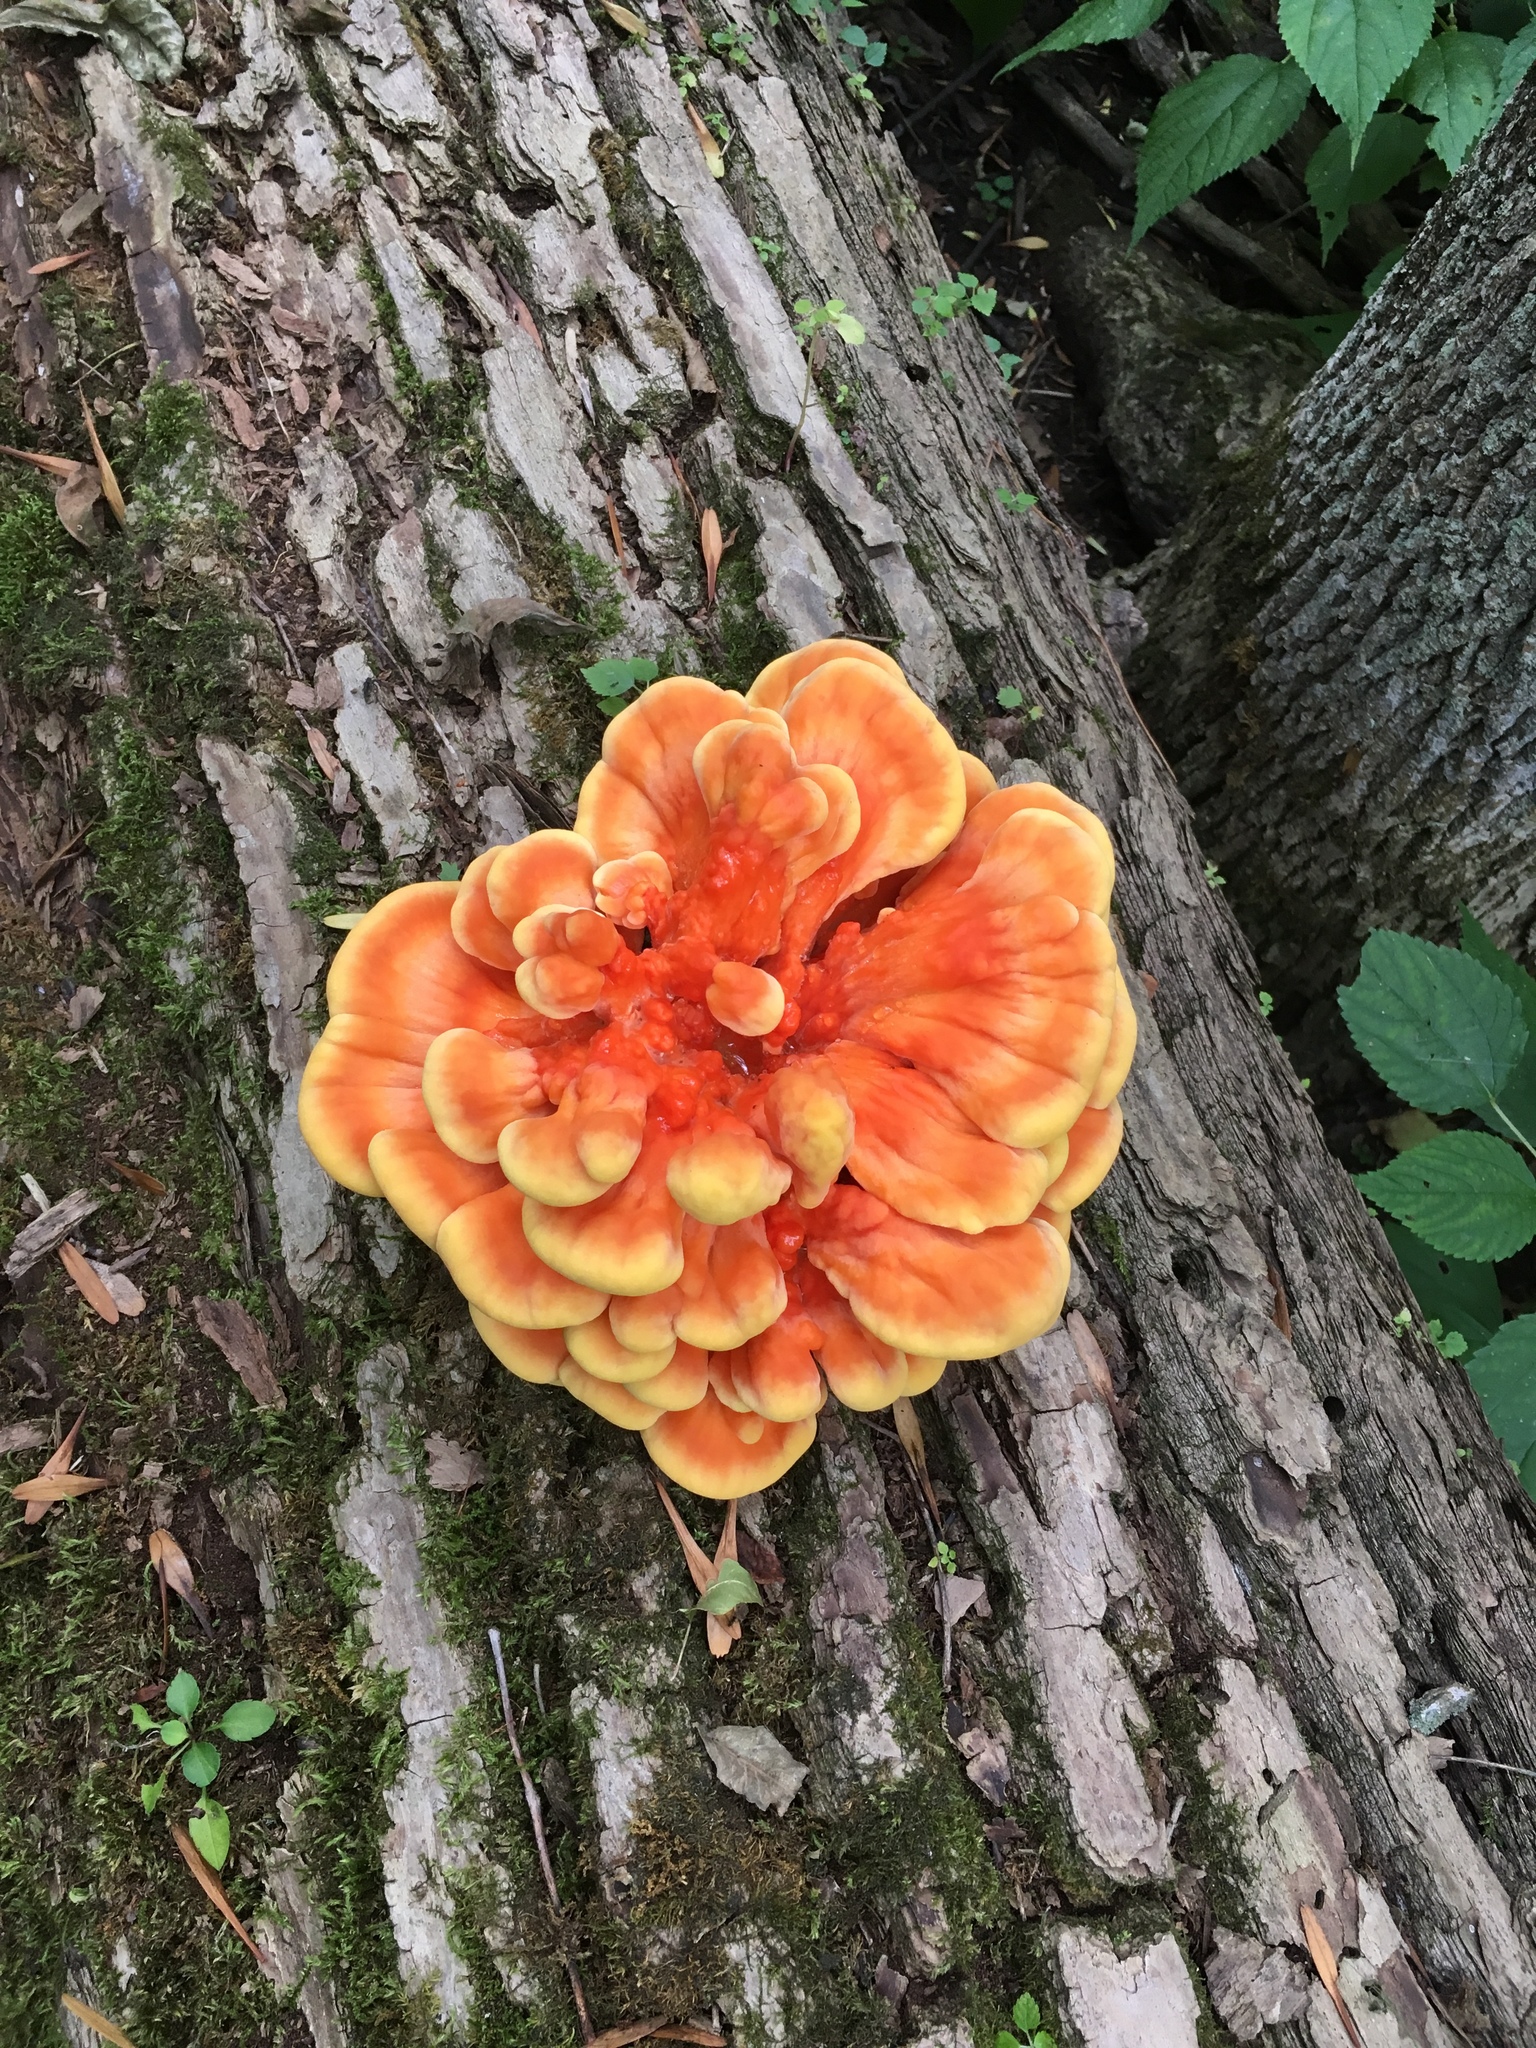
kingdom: Fungi
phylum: Basidiomycota
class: Agaricomycetes
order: Polyporales
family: Laetiporaceae
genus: Laetiporus
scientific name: Laetiporus sulphureus
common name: Chicken of the woods
